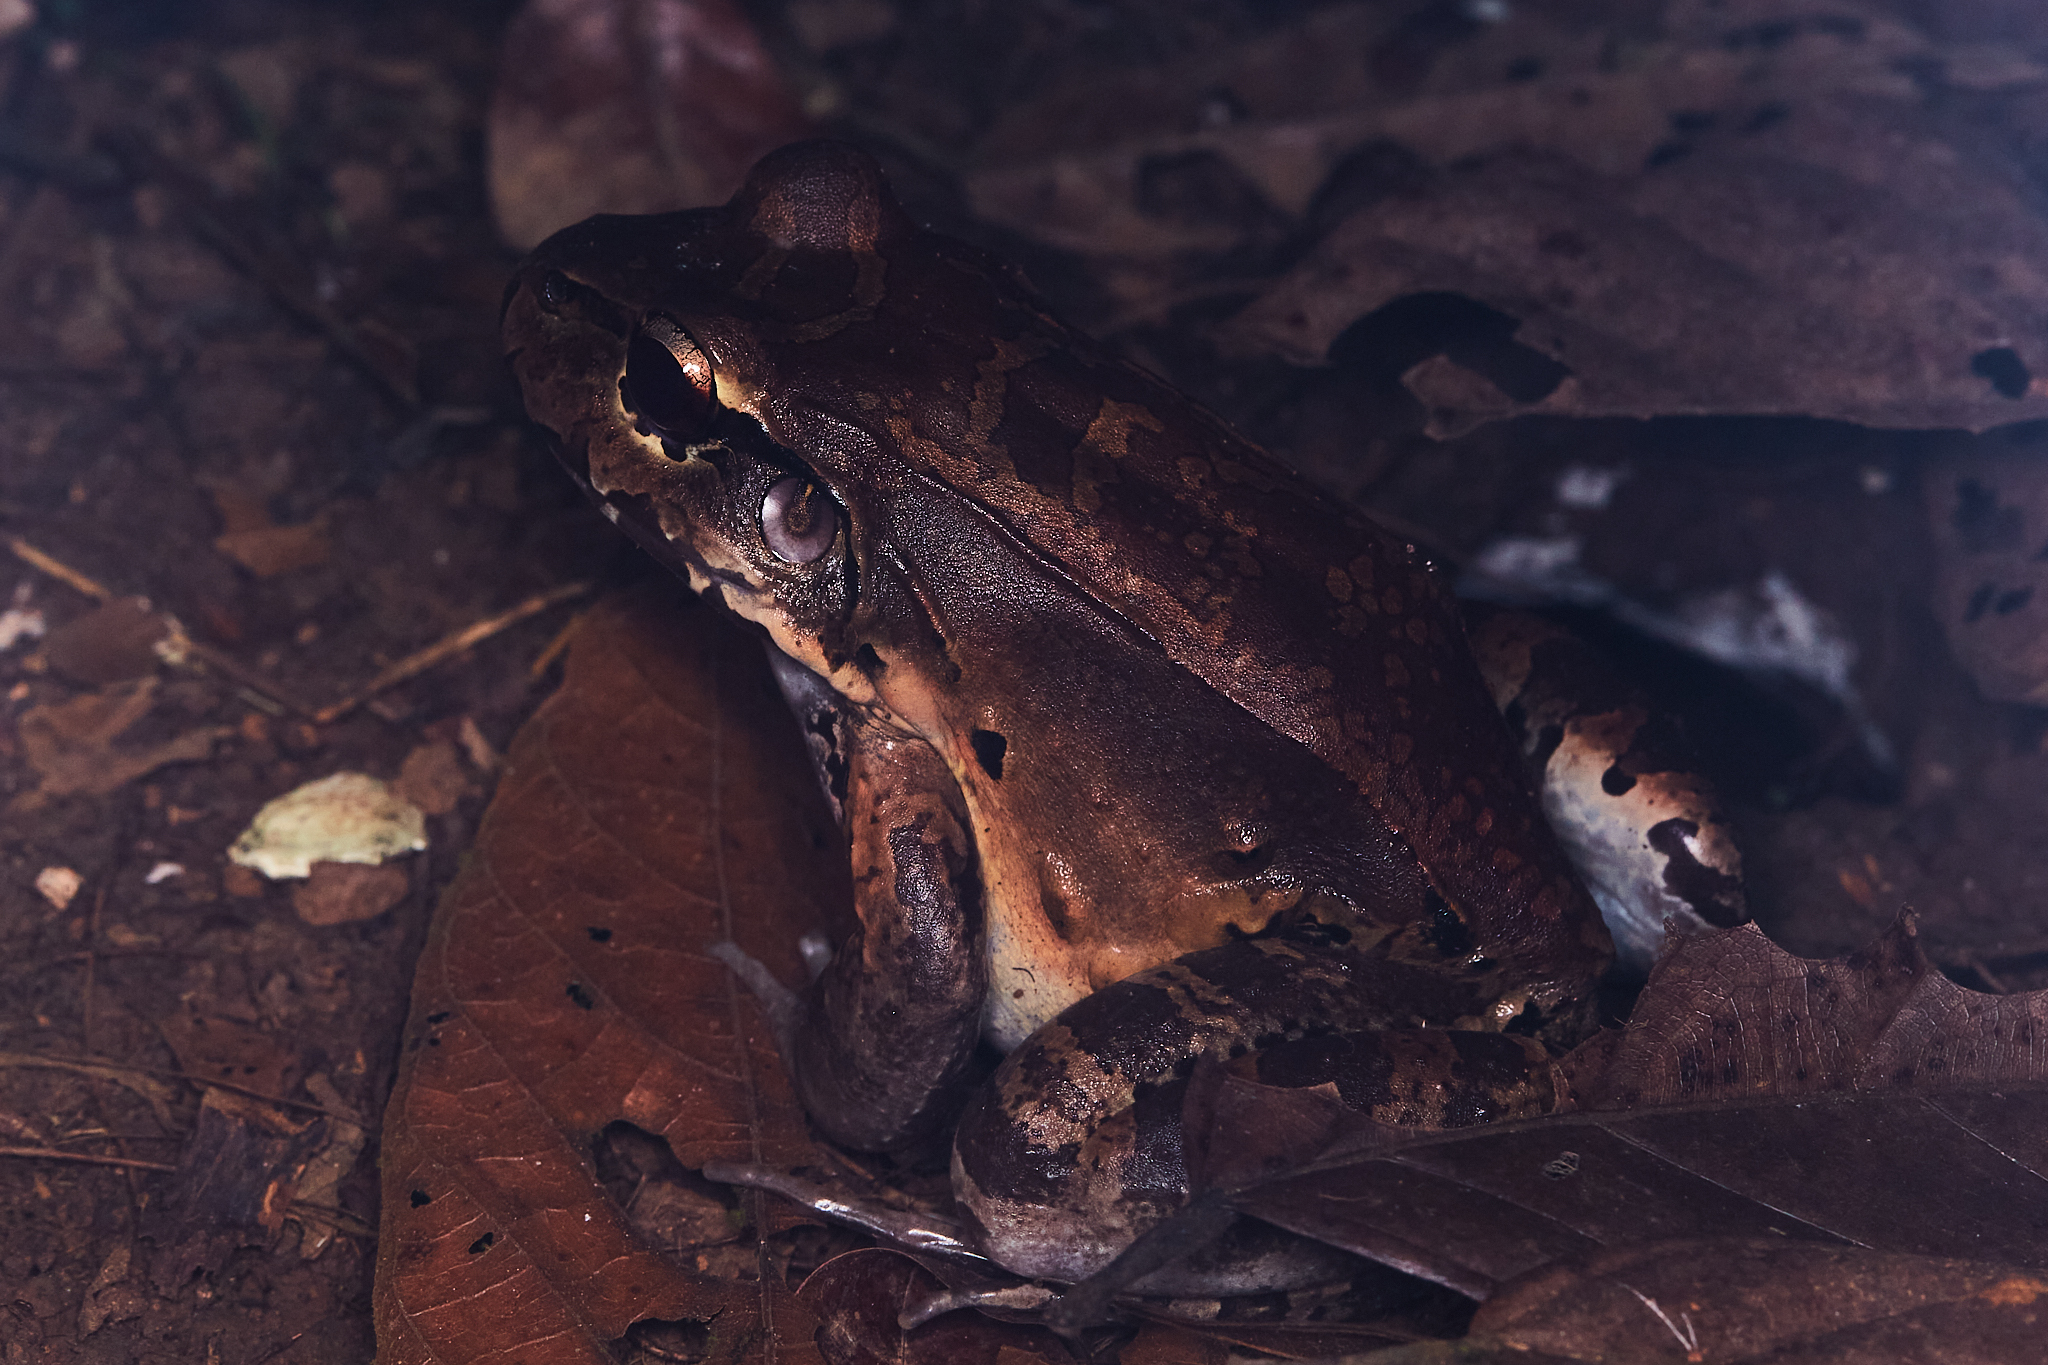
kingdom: Animalia
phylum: Chordata
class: Amphibia
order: Anura
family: Leptodactylidae
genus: Leptodactylus
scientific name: Leptodactylus savagei
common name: Savage's thin-toed frog
